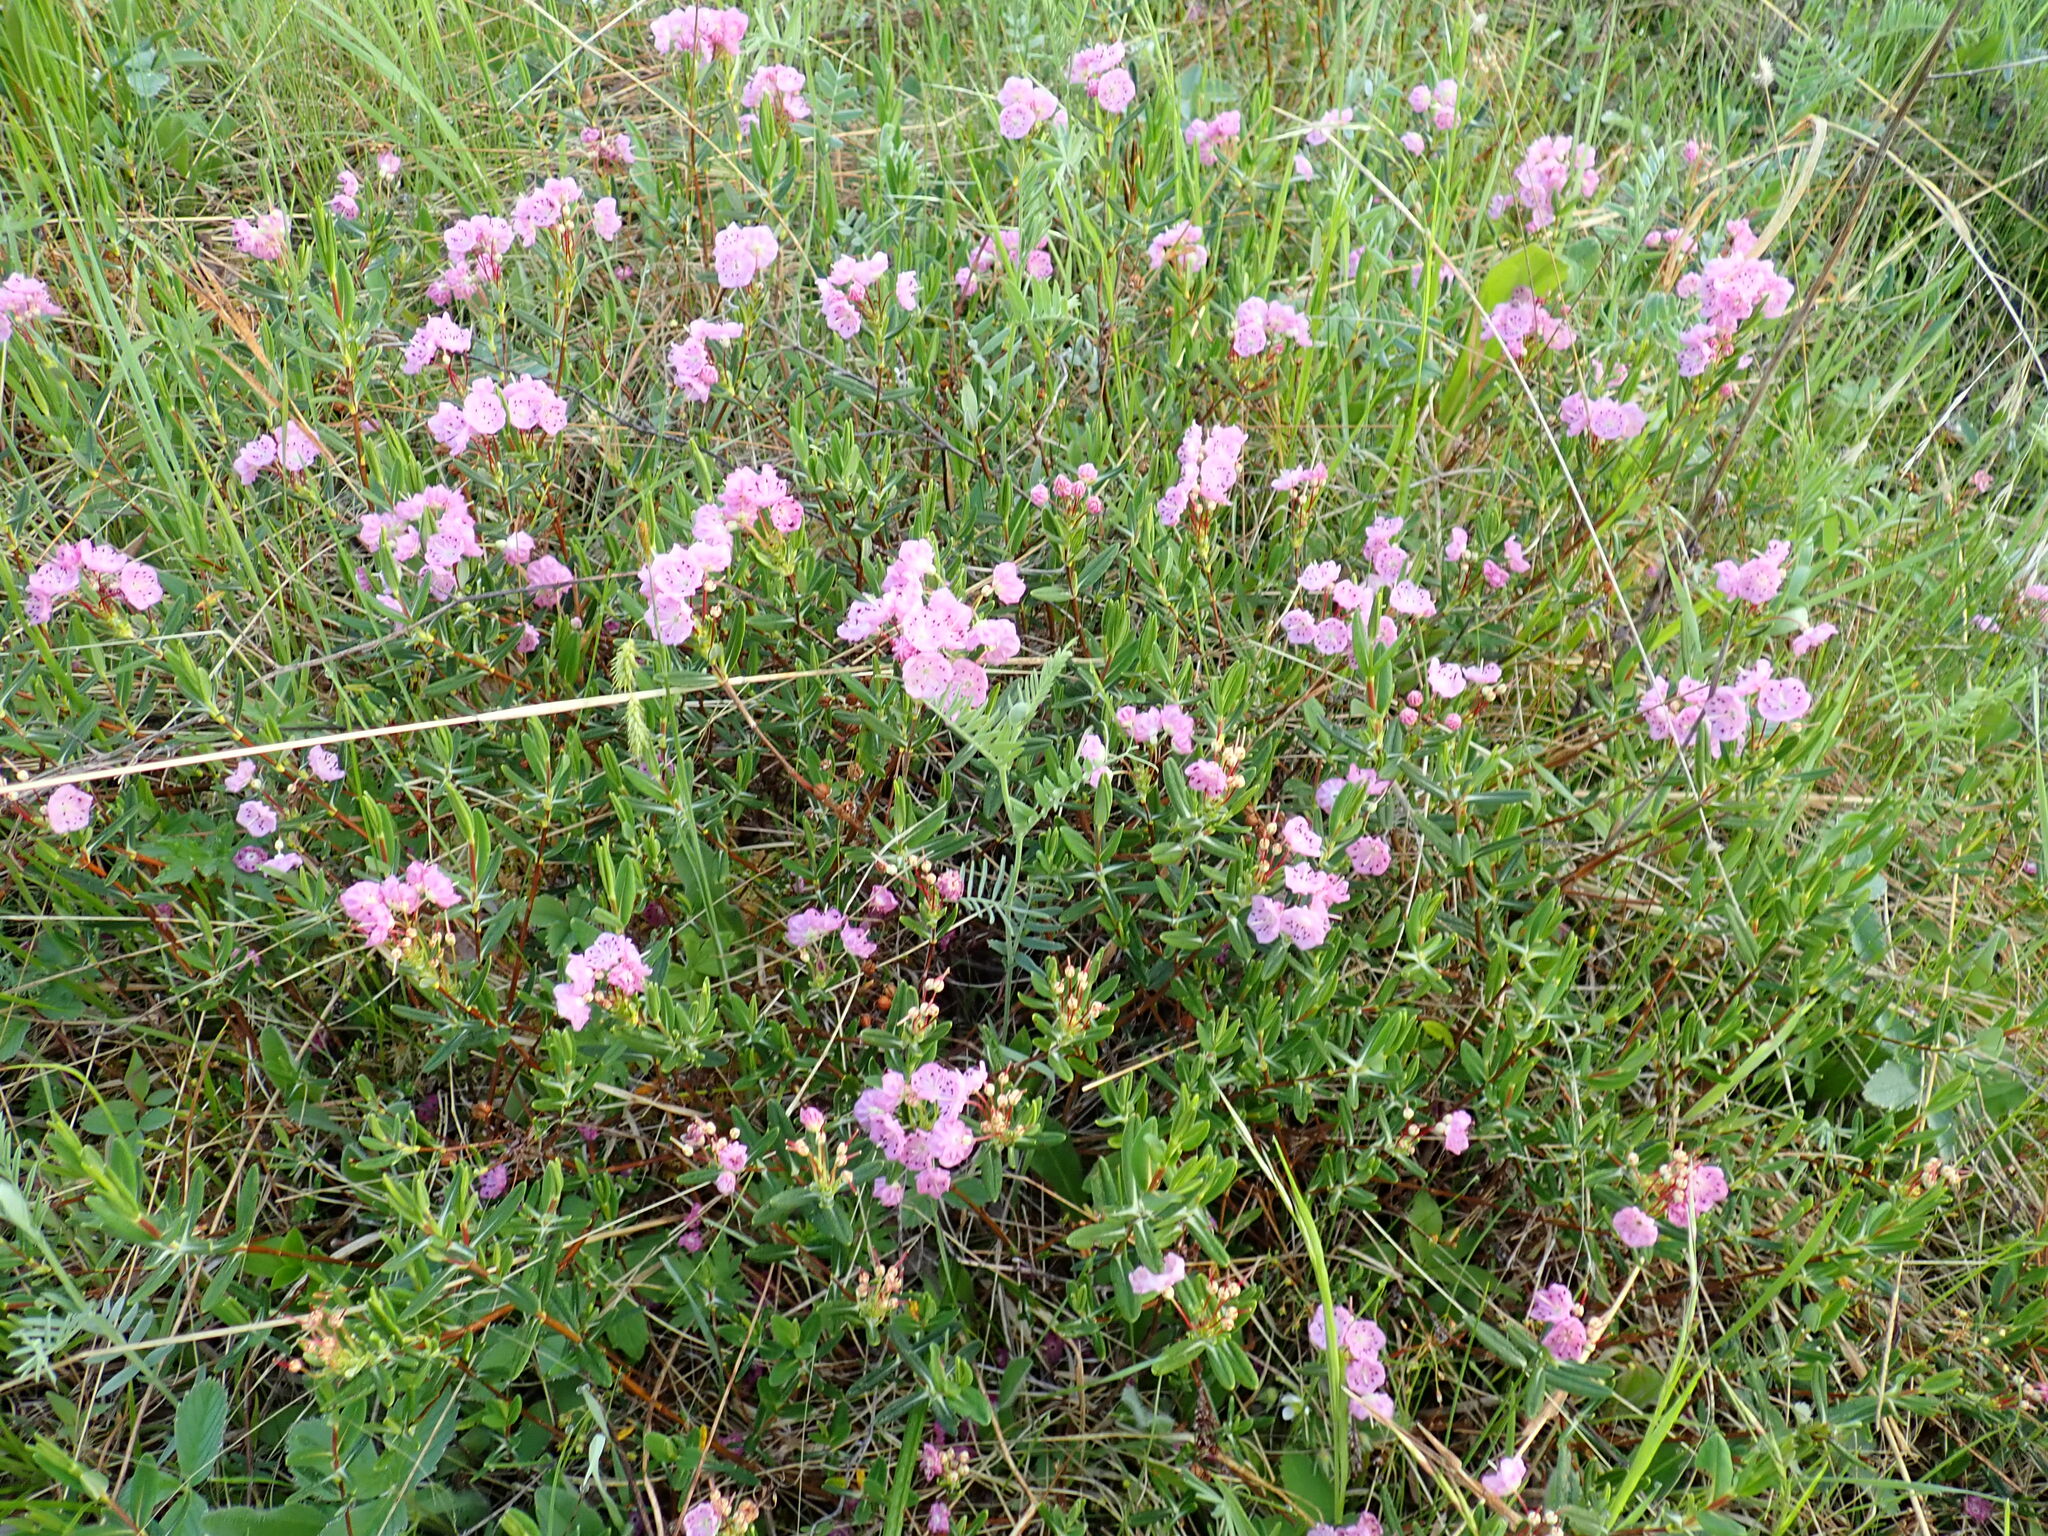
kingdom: Plantae
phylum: Tracheophyta
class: Magnoliopsida
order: Ericales
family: Ericaceae
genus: Kalmia
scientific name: Kalmia polifolia
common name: Bog-laurel
